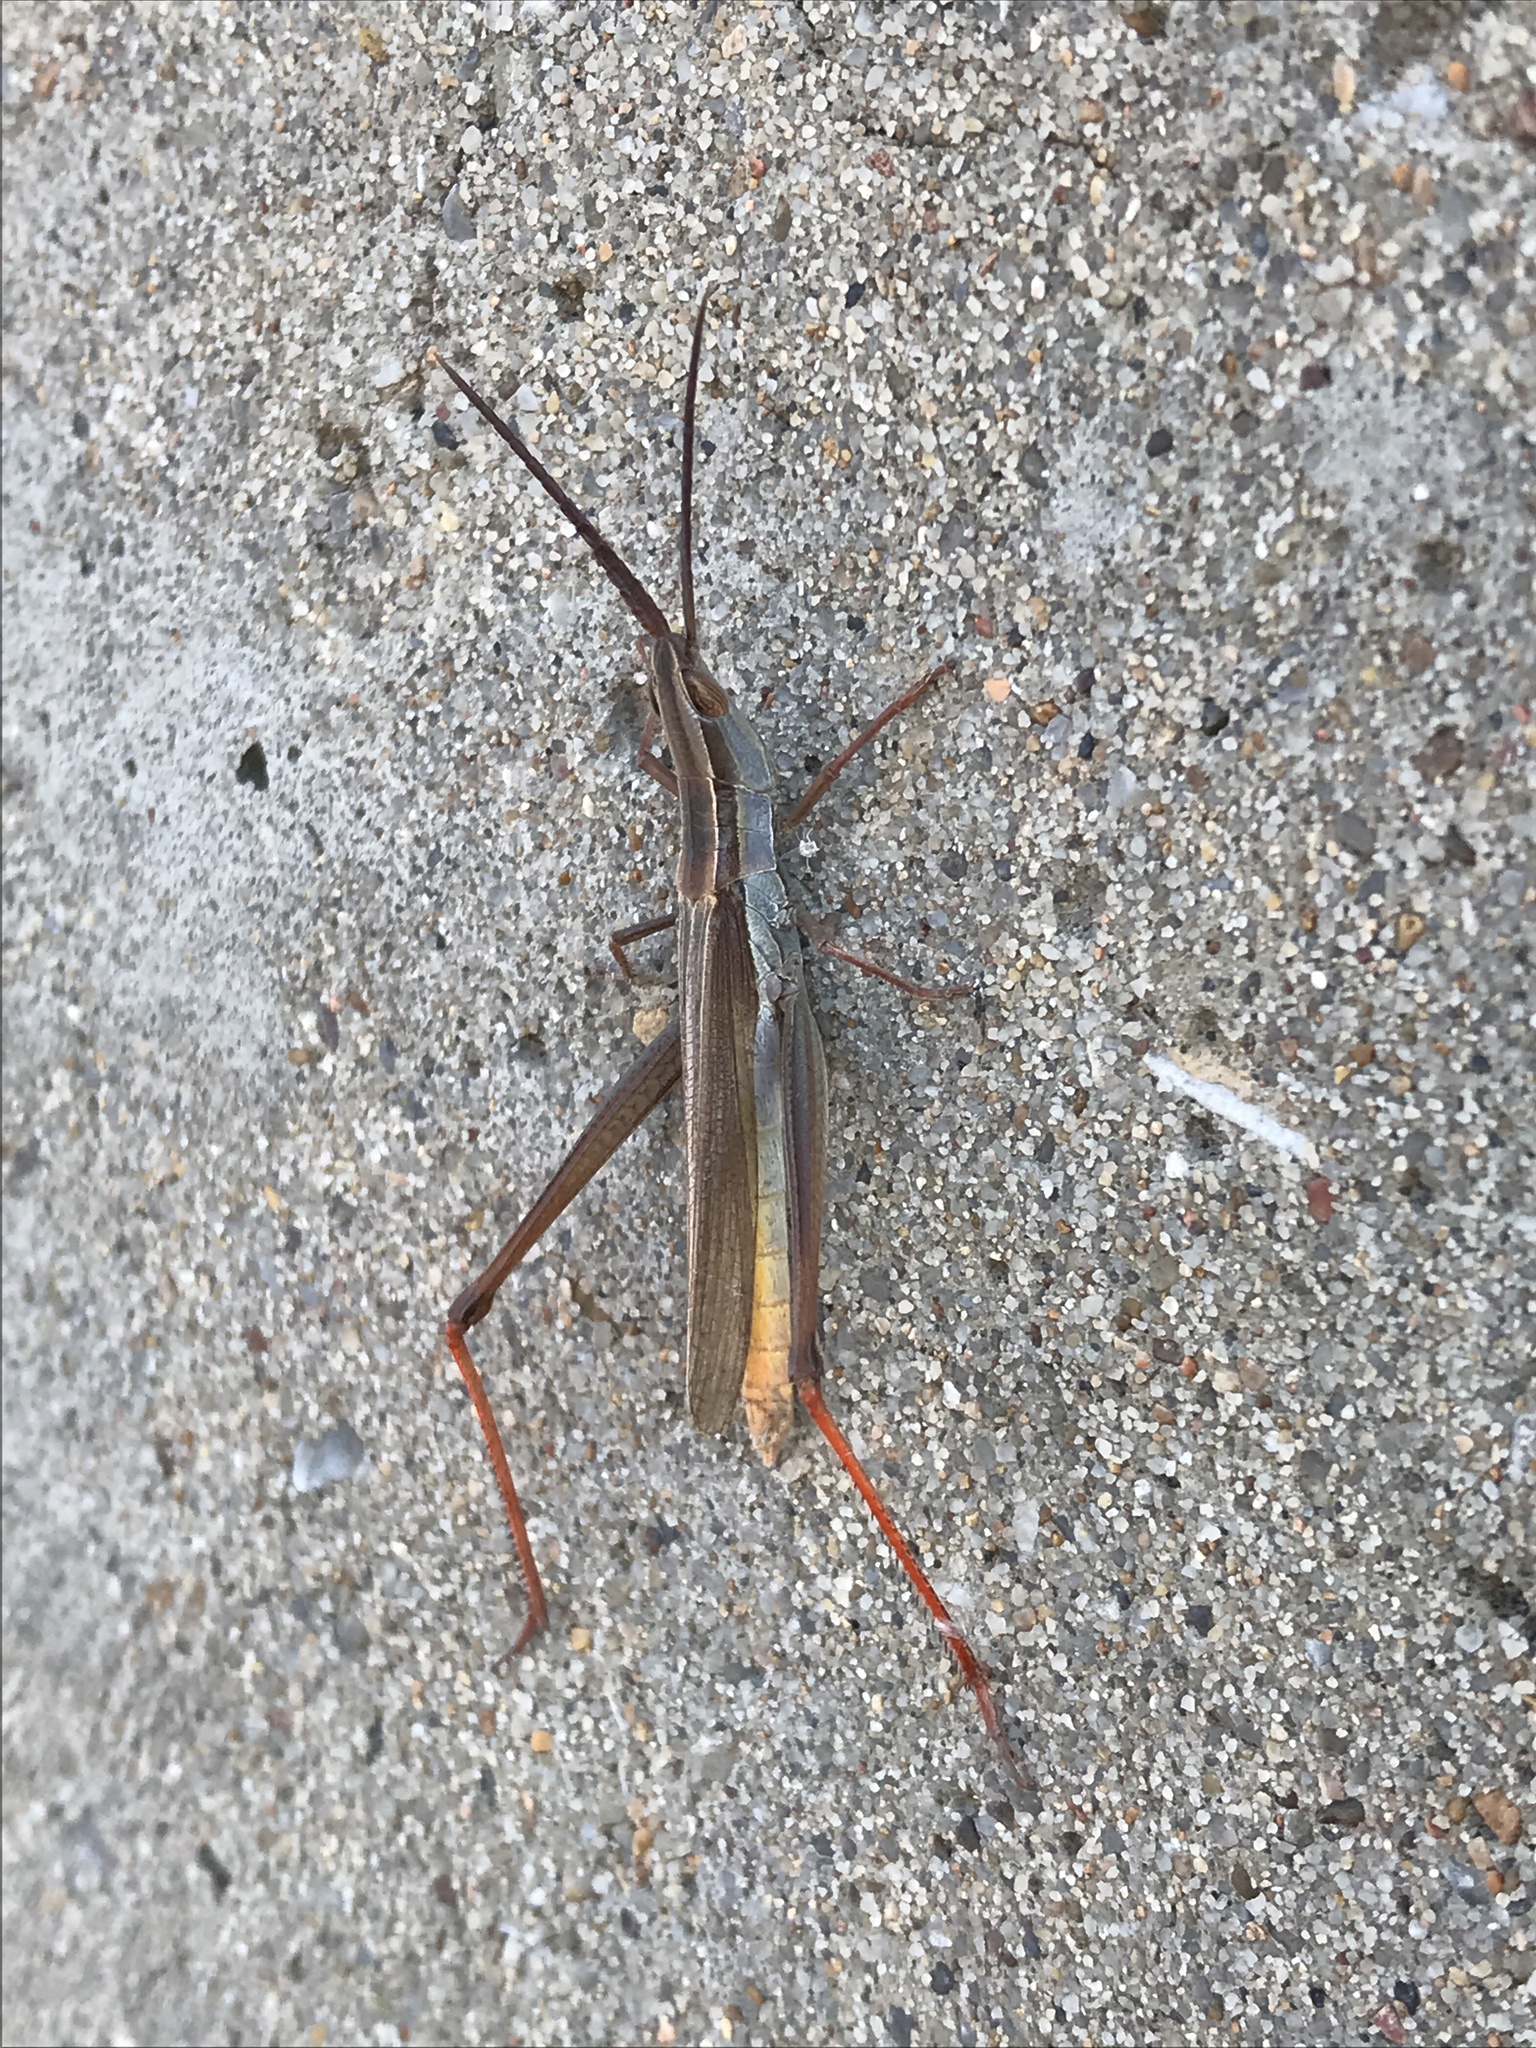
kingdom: Animalia
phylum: Arthropoda
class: Insecta
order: Orthoptera
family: Acrididae
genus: Mermiria
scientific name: Mermiria picta
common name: Lively mermiria grasshopper
